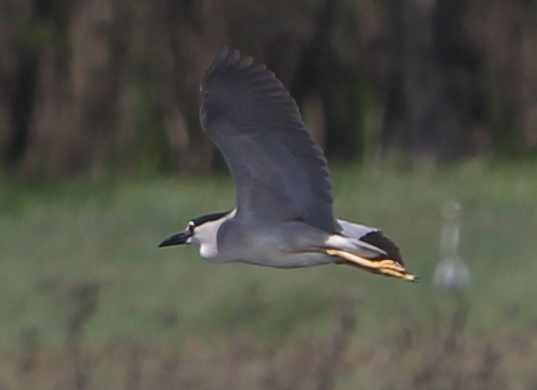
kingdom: Animalia
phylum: Chordata
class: Aves
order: Pelecaniformes
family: Ardeidae
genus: Nycticorax
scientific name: Nycticorax nycticorax
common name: Black-crowned night heron
